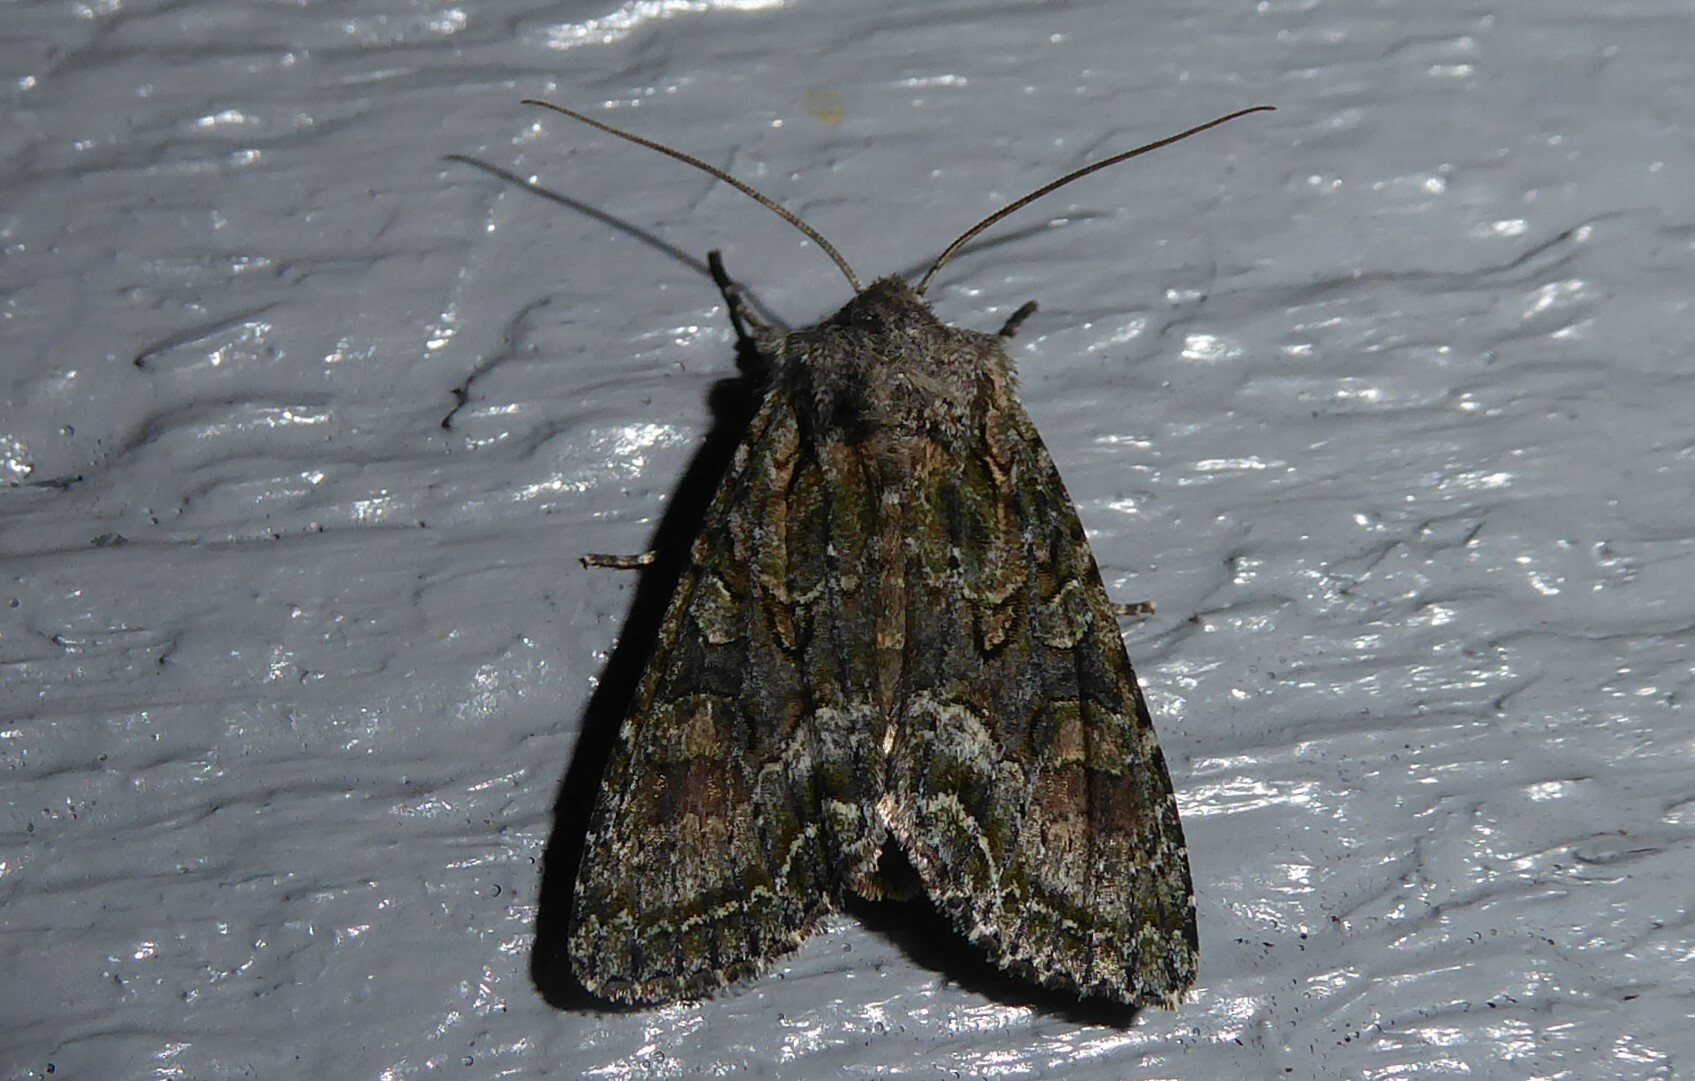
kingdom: Animalia
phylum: Arthropoda
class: Insecta
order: Lepidoptera
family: Noctuidae
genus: Ichneutica
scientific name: Ichneutica mutans
